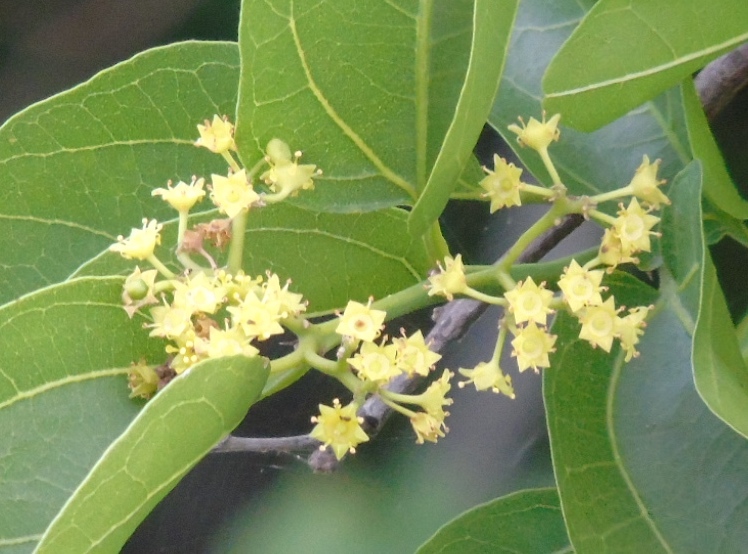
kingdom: Plantae
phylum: Tracheophyta
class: Magnoliopsida
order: Rosales
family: Rhamnaceae
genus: Sarcomphalus
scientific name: Sarcomphalus amole
